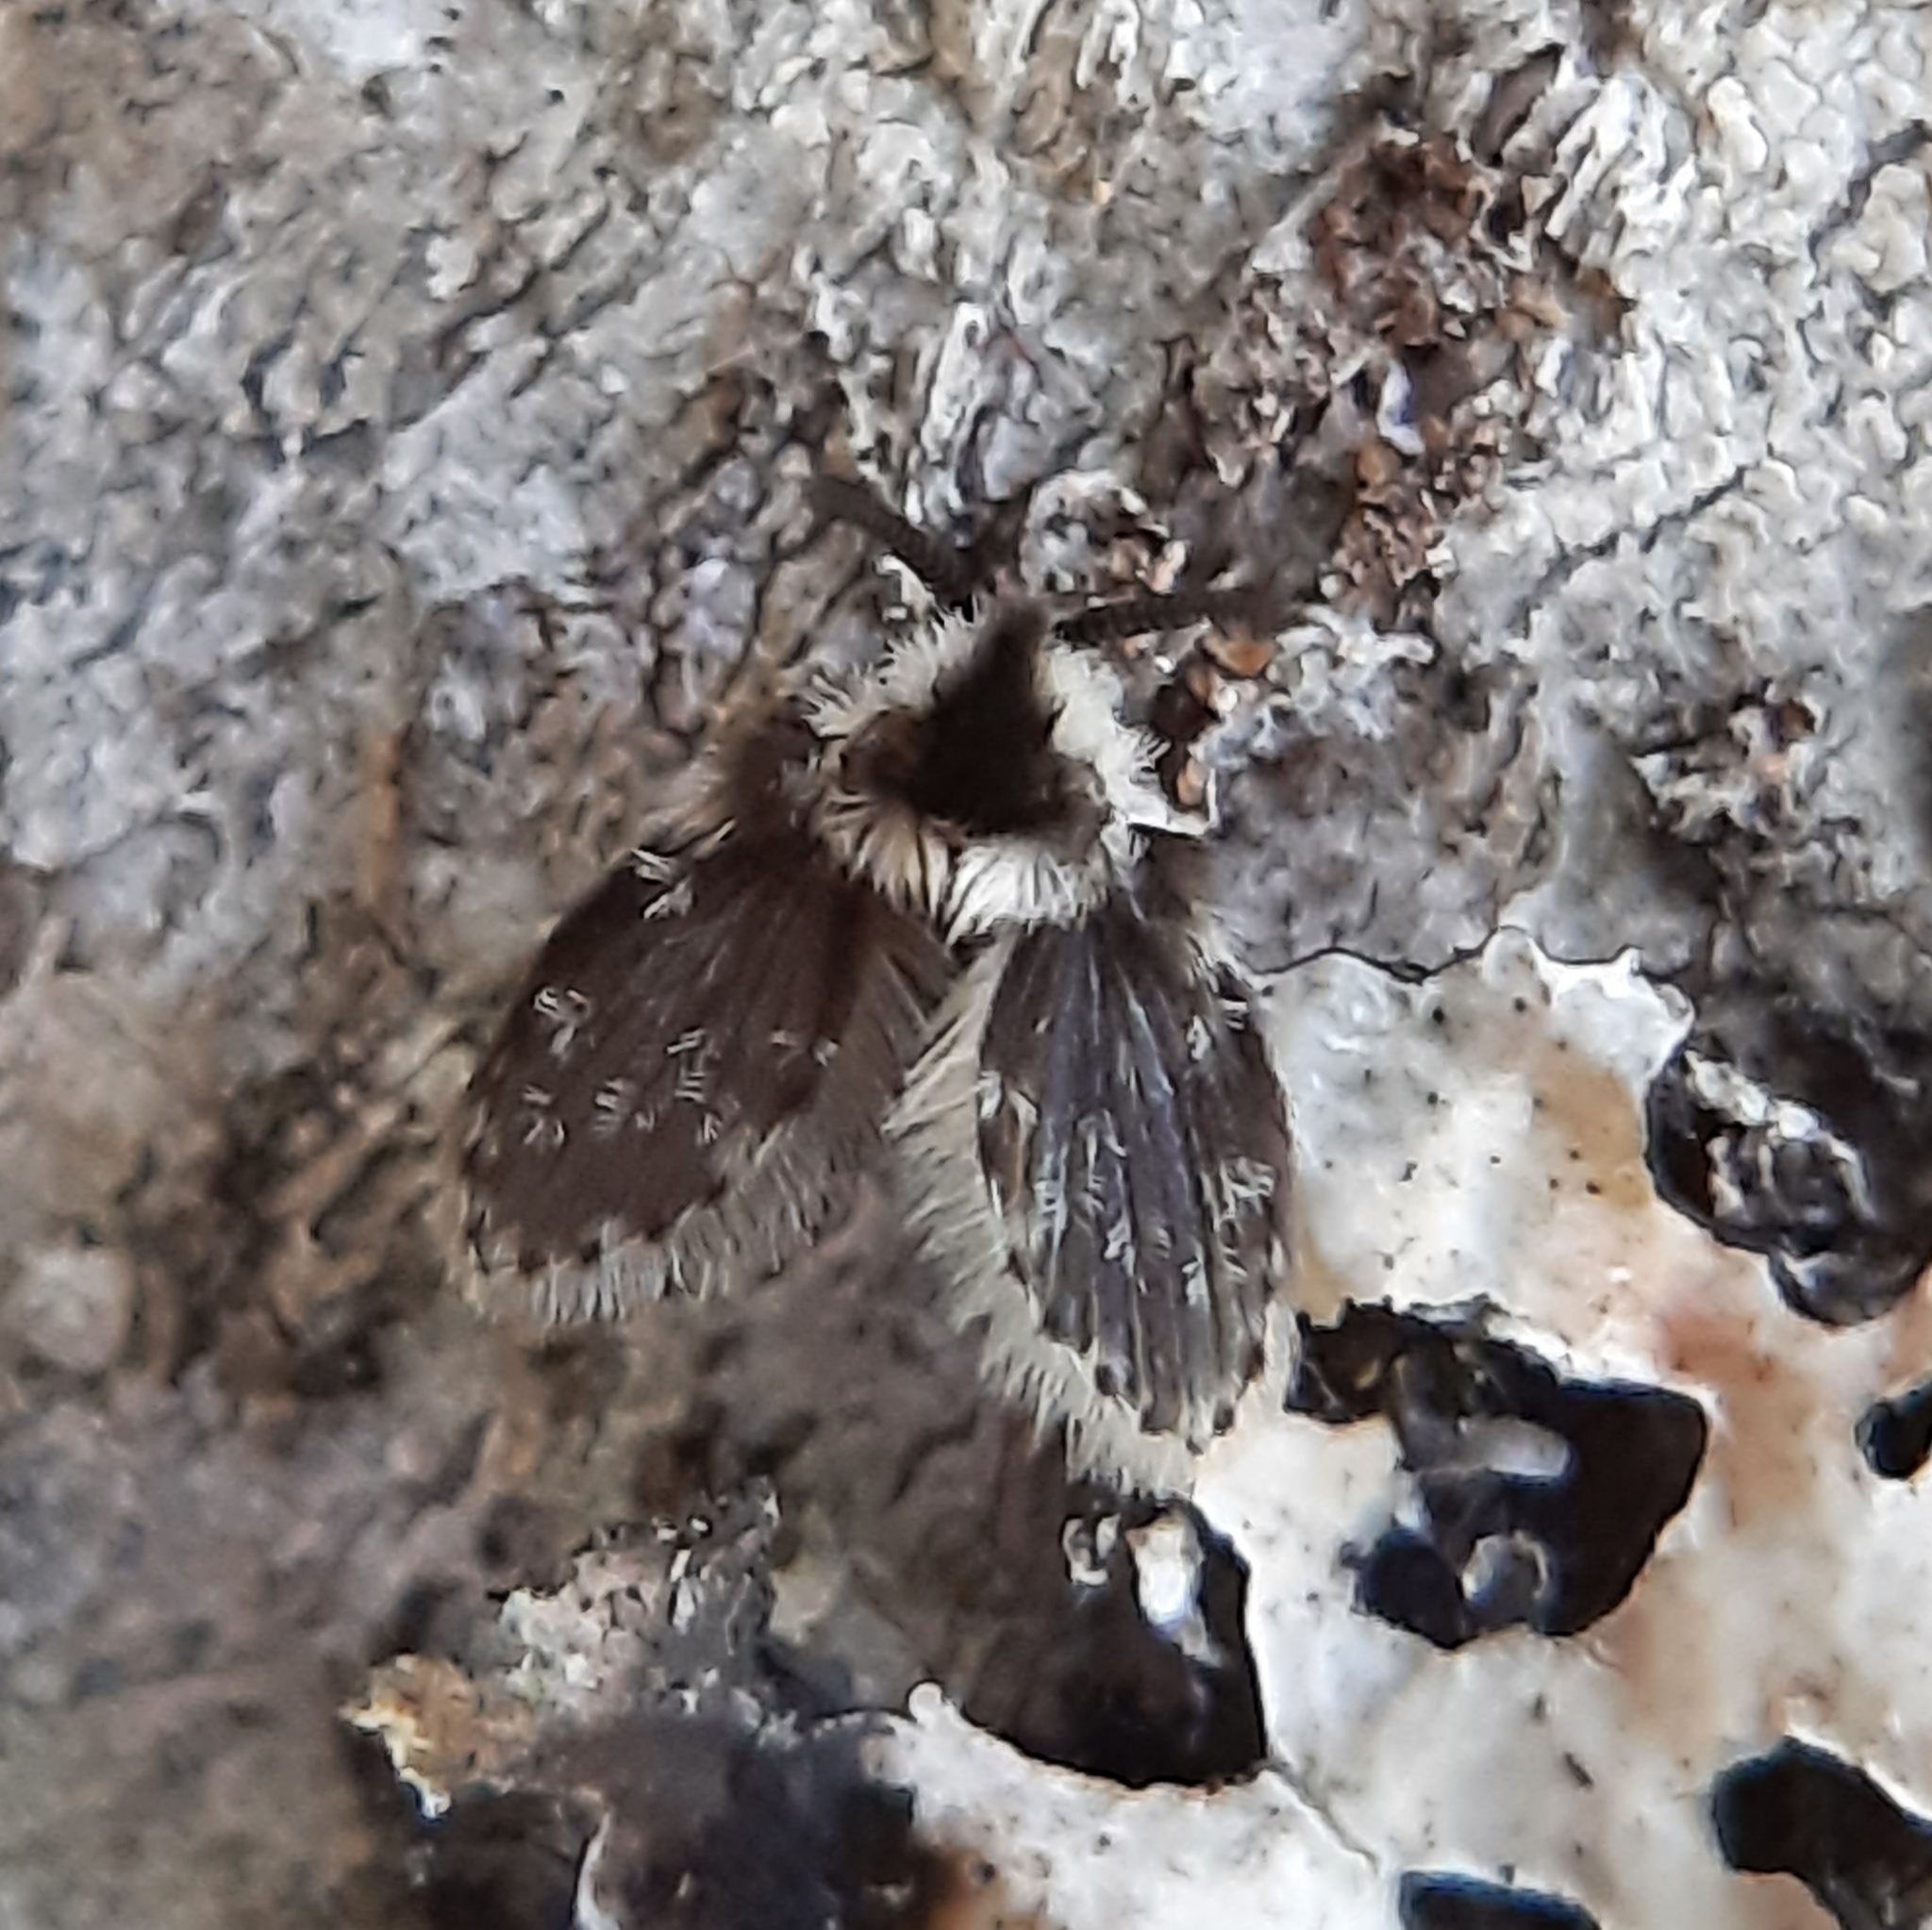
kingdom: Animalia
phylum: Arthropoda
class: Insecta
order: Diptera
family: Psychodidae
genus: Lepiseodina
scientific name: Lepiseodina
